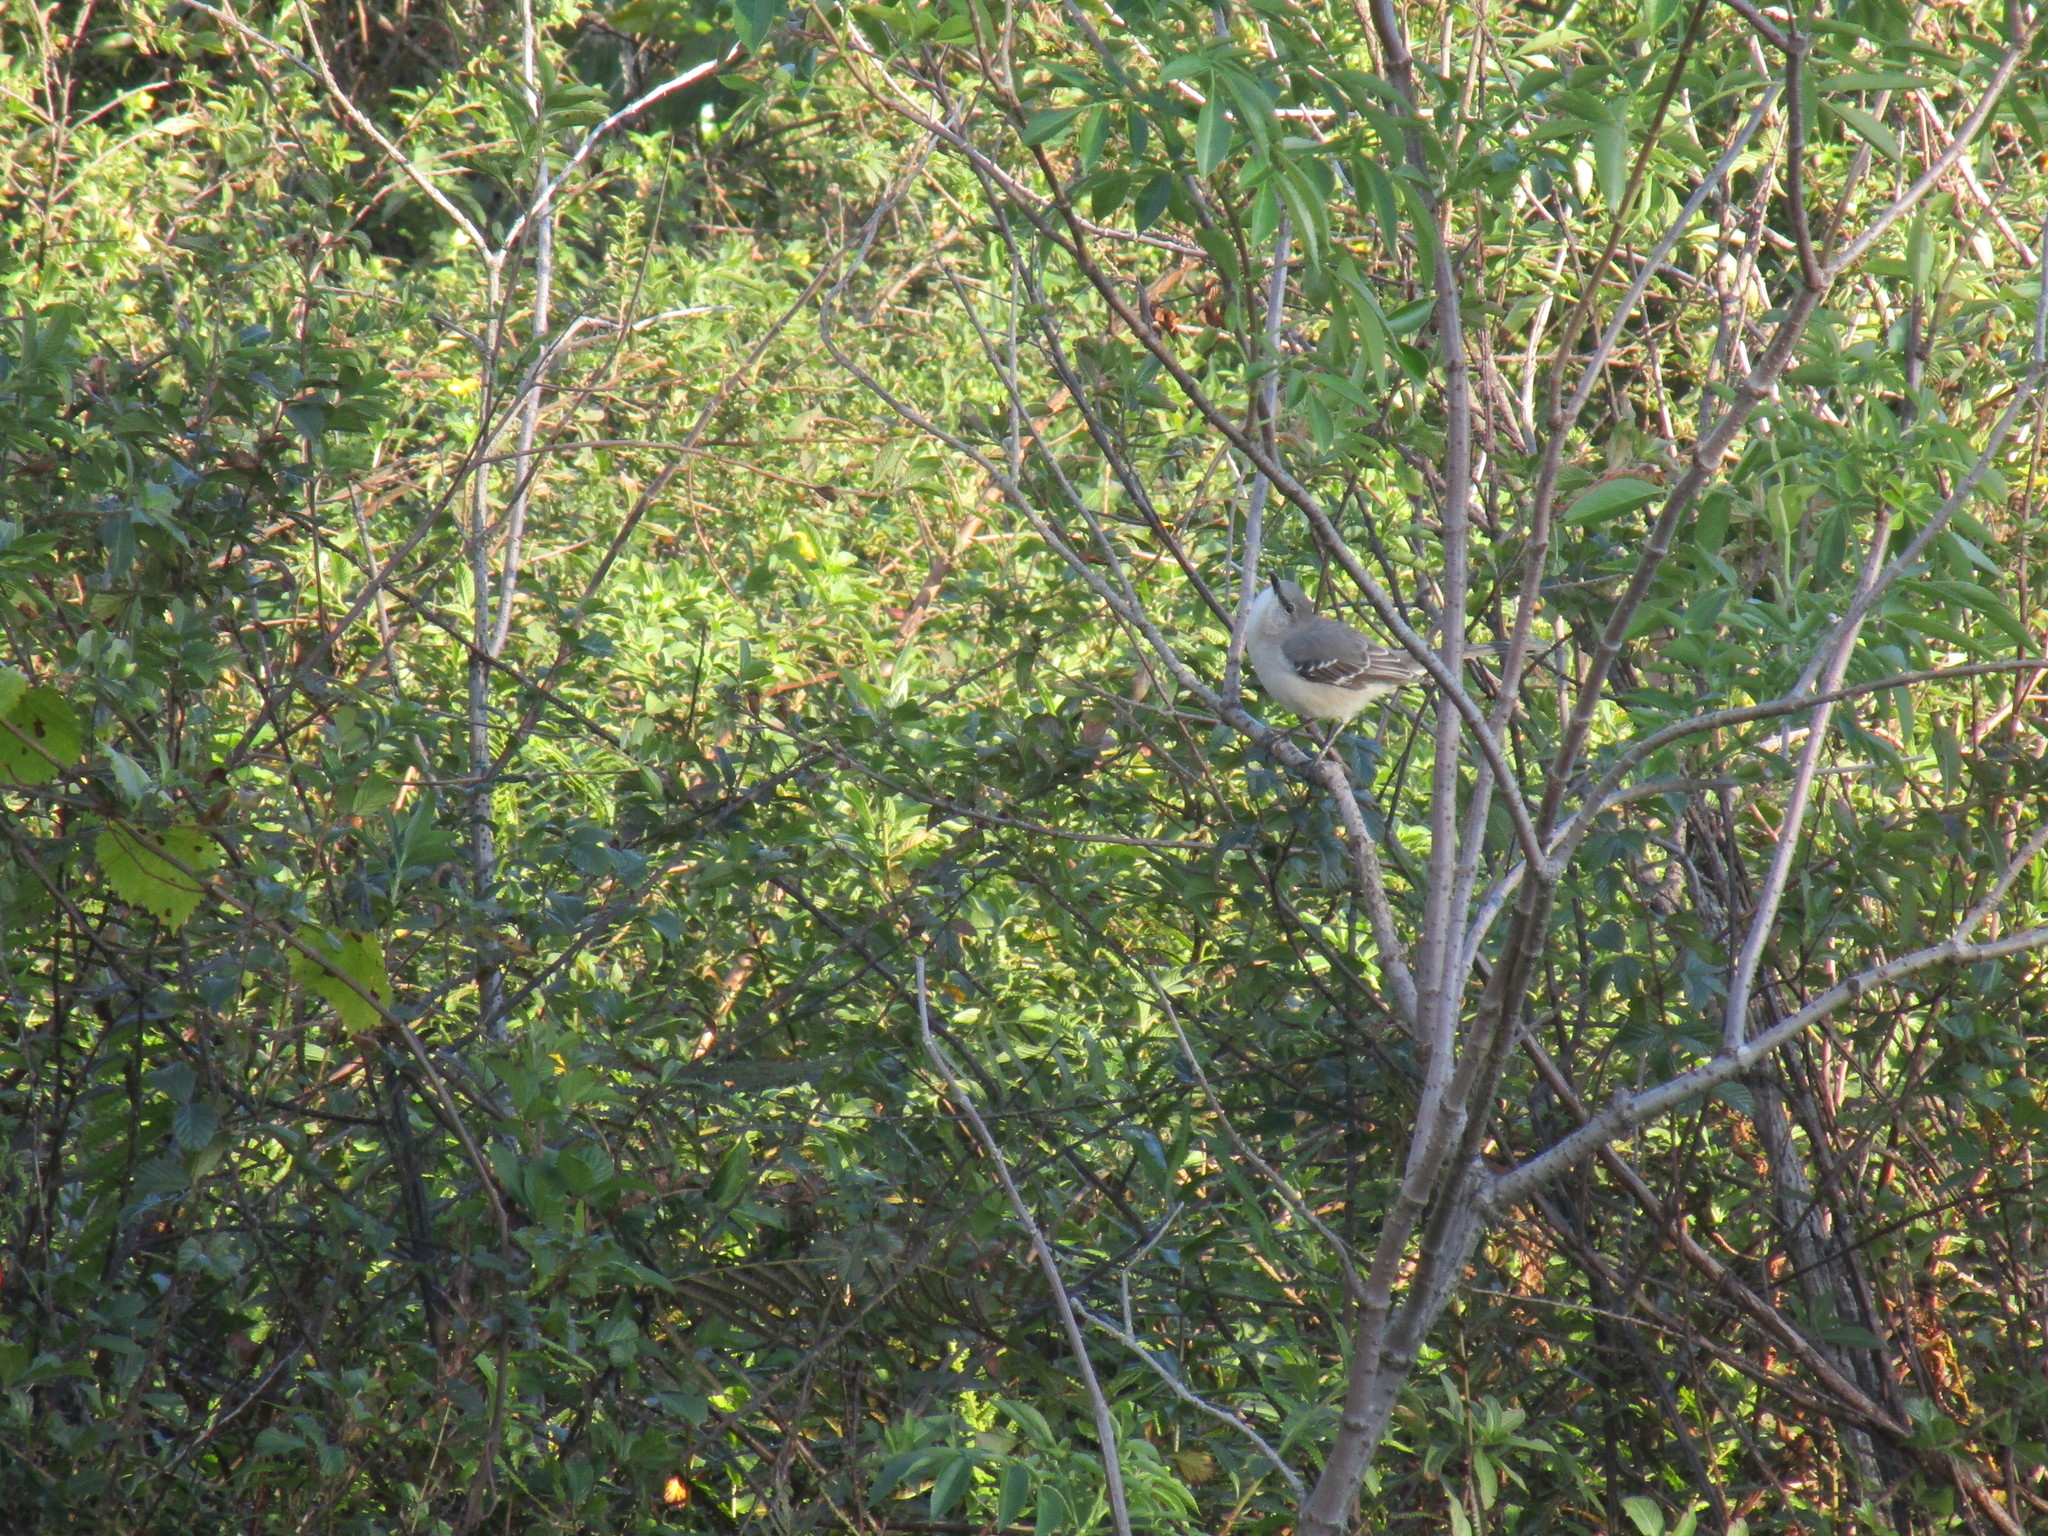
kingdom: Animalia
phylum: Chordata
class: Aves
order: Passeriformes
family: Mimidae
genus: Mimus
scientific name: Mimus polyglottos
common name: Northern mockingbird
